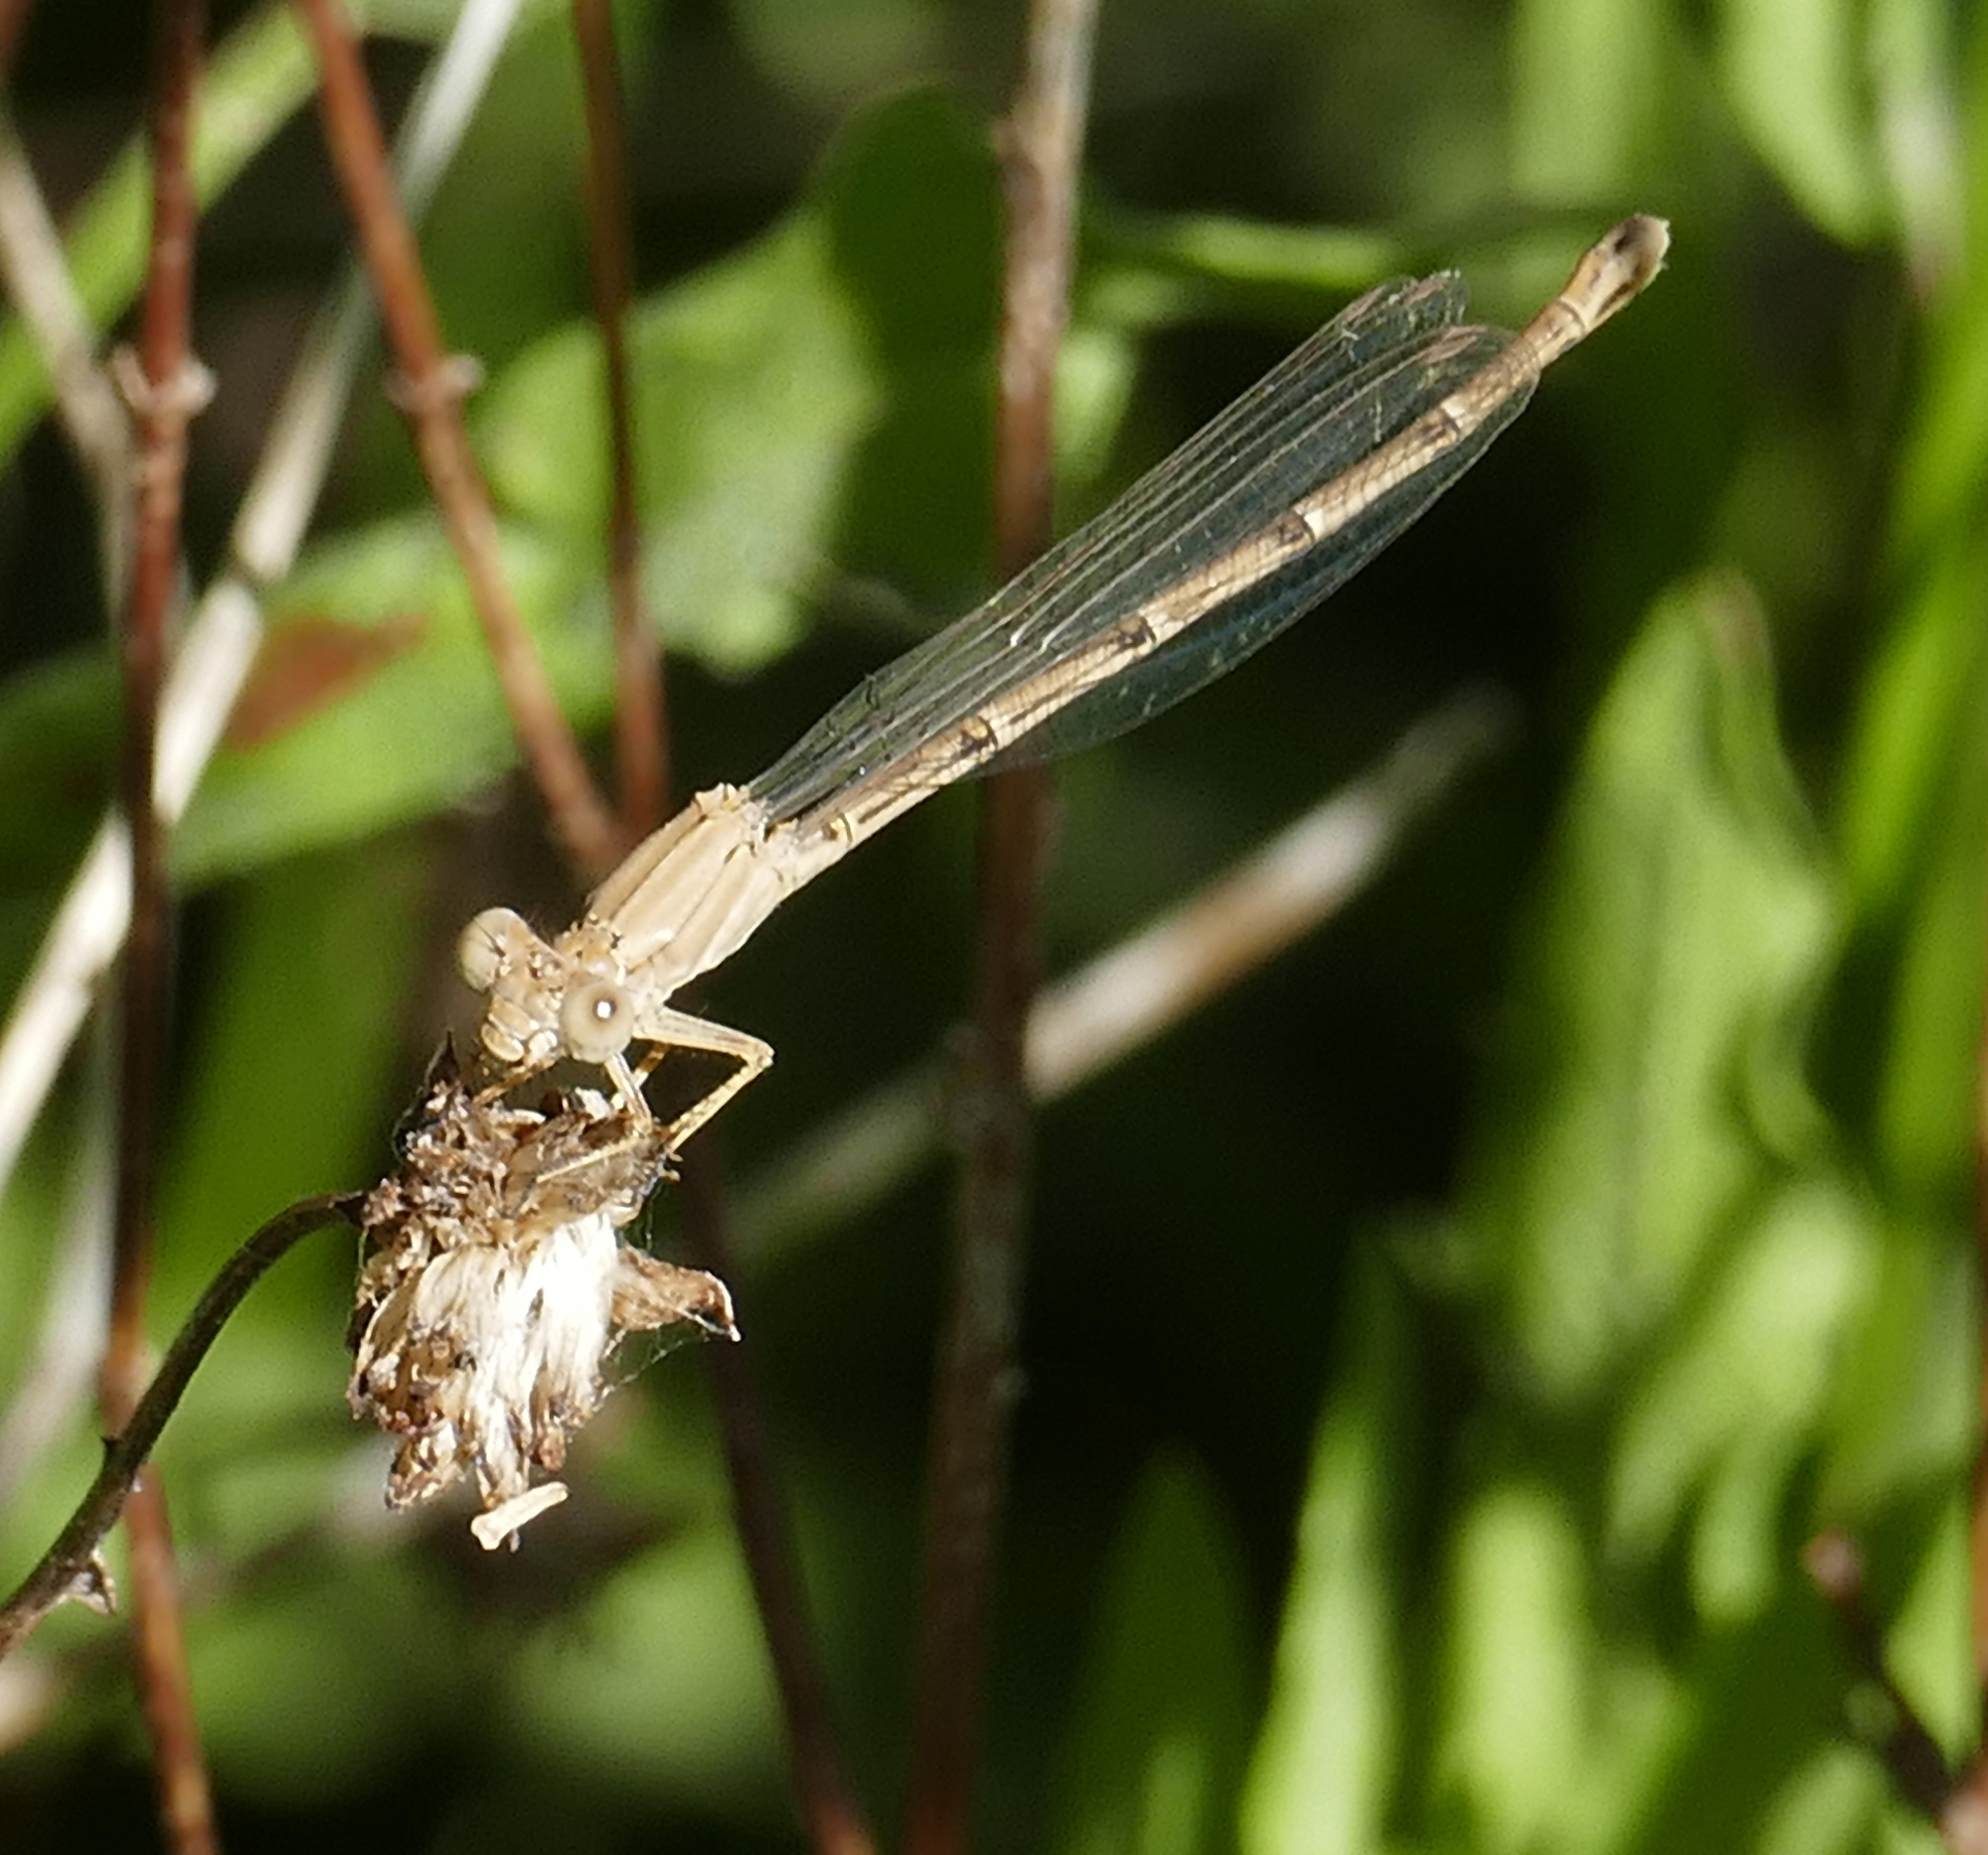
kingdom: Animalia
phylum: Arthropoda
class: Insecta
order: Odonata
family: Coenagrionidae
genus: Argia
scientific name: Argia pallens
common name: Amethyst dancer
